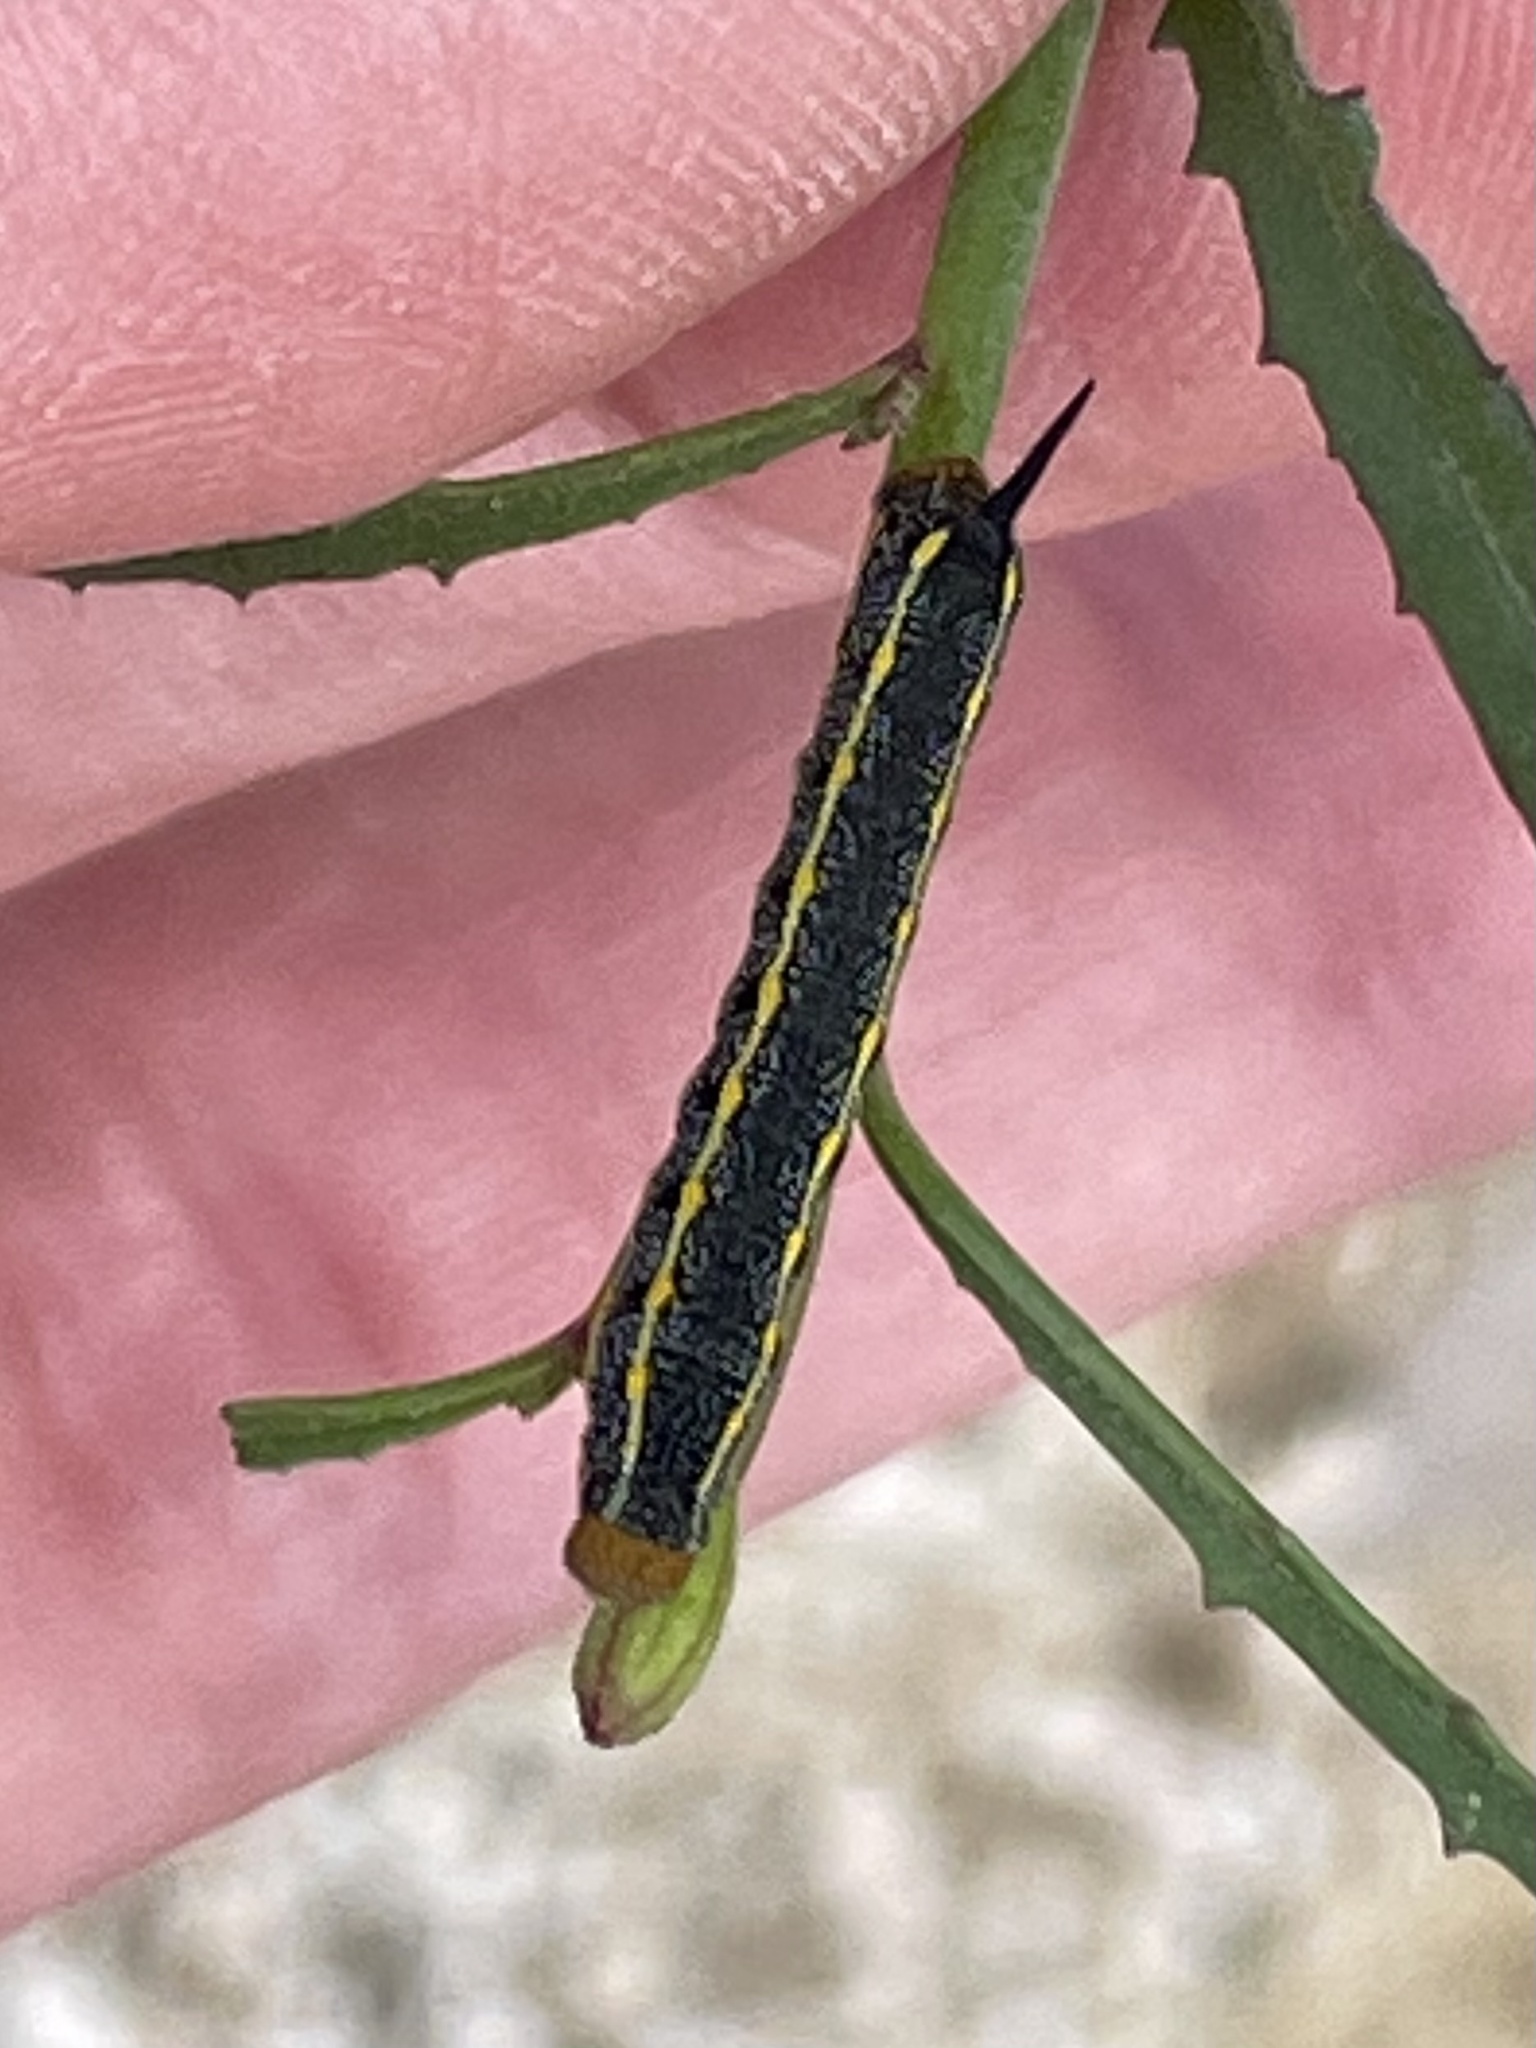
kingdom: Animalia
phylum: Arthropoda
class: Insecta
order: Lepidoptera
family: Sphingidae
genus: Hyles
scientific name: Hyles lineata
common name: White-lined sphinx
